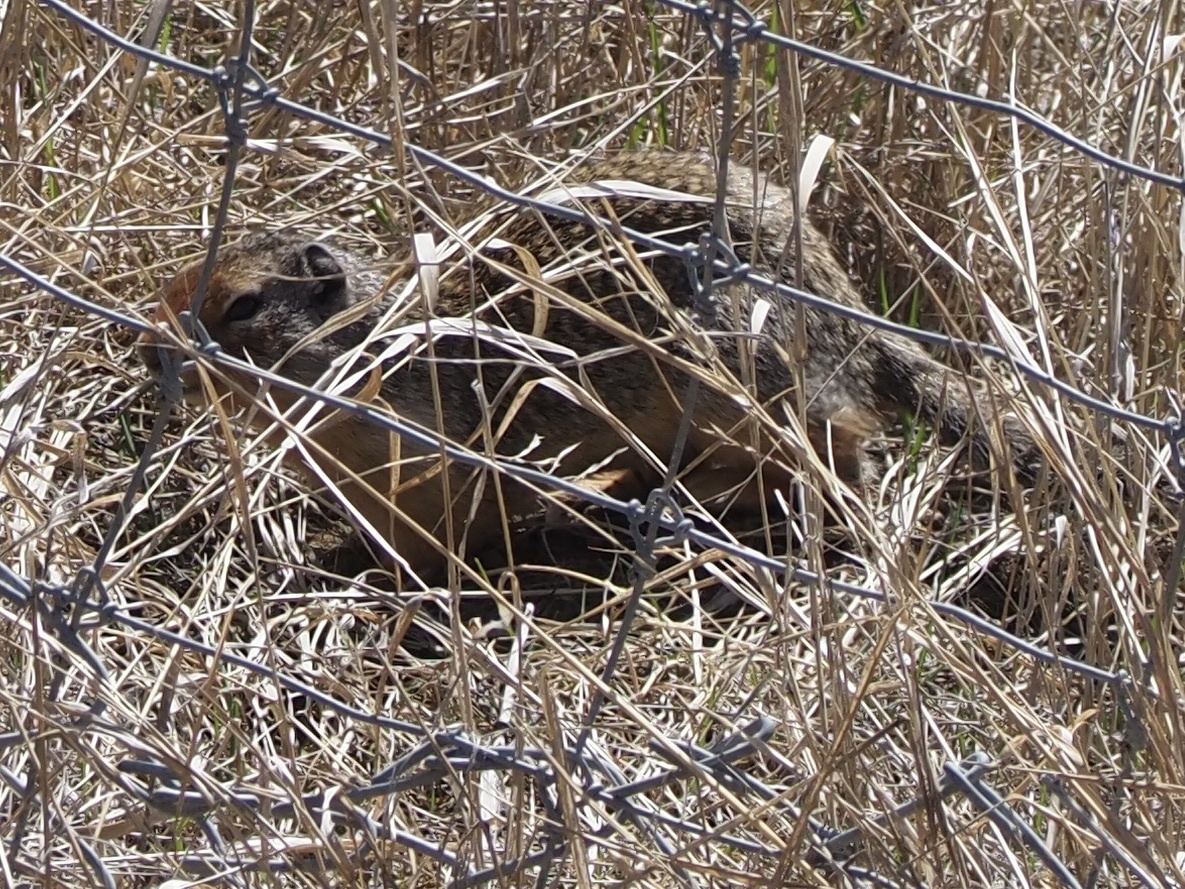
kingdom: Animalia
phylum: Chordata
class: Mammalia
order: Rodentia
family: Sciuridae
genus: Urocitellus
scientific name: Urocitellus columbianus
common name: Columbian ground squirrel
